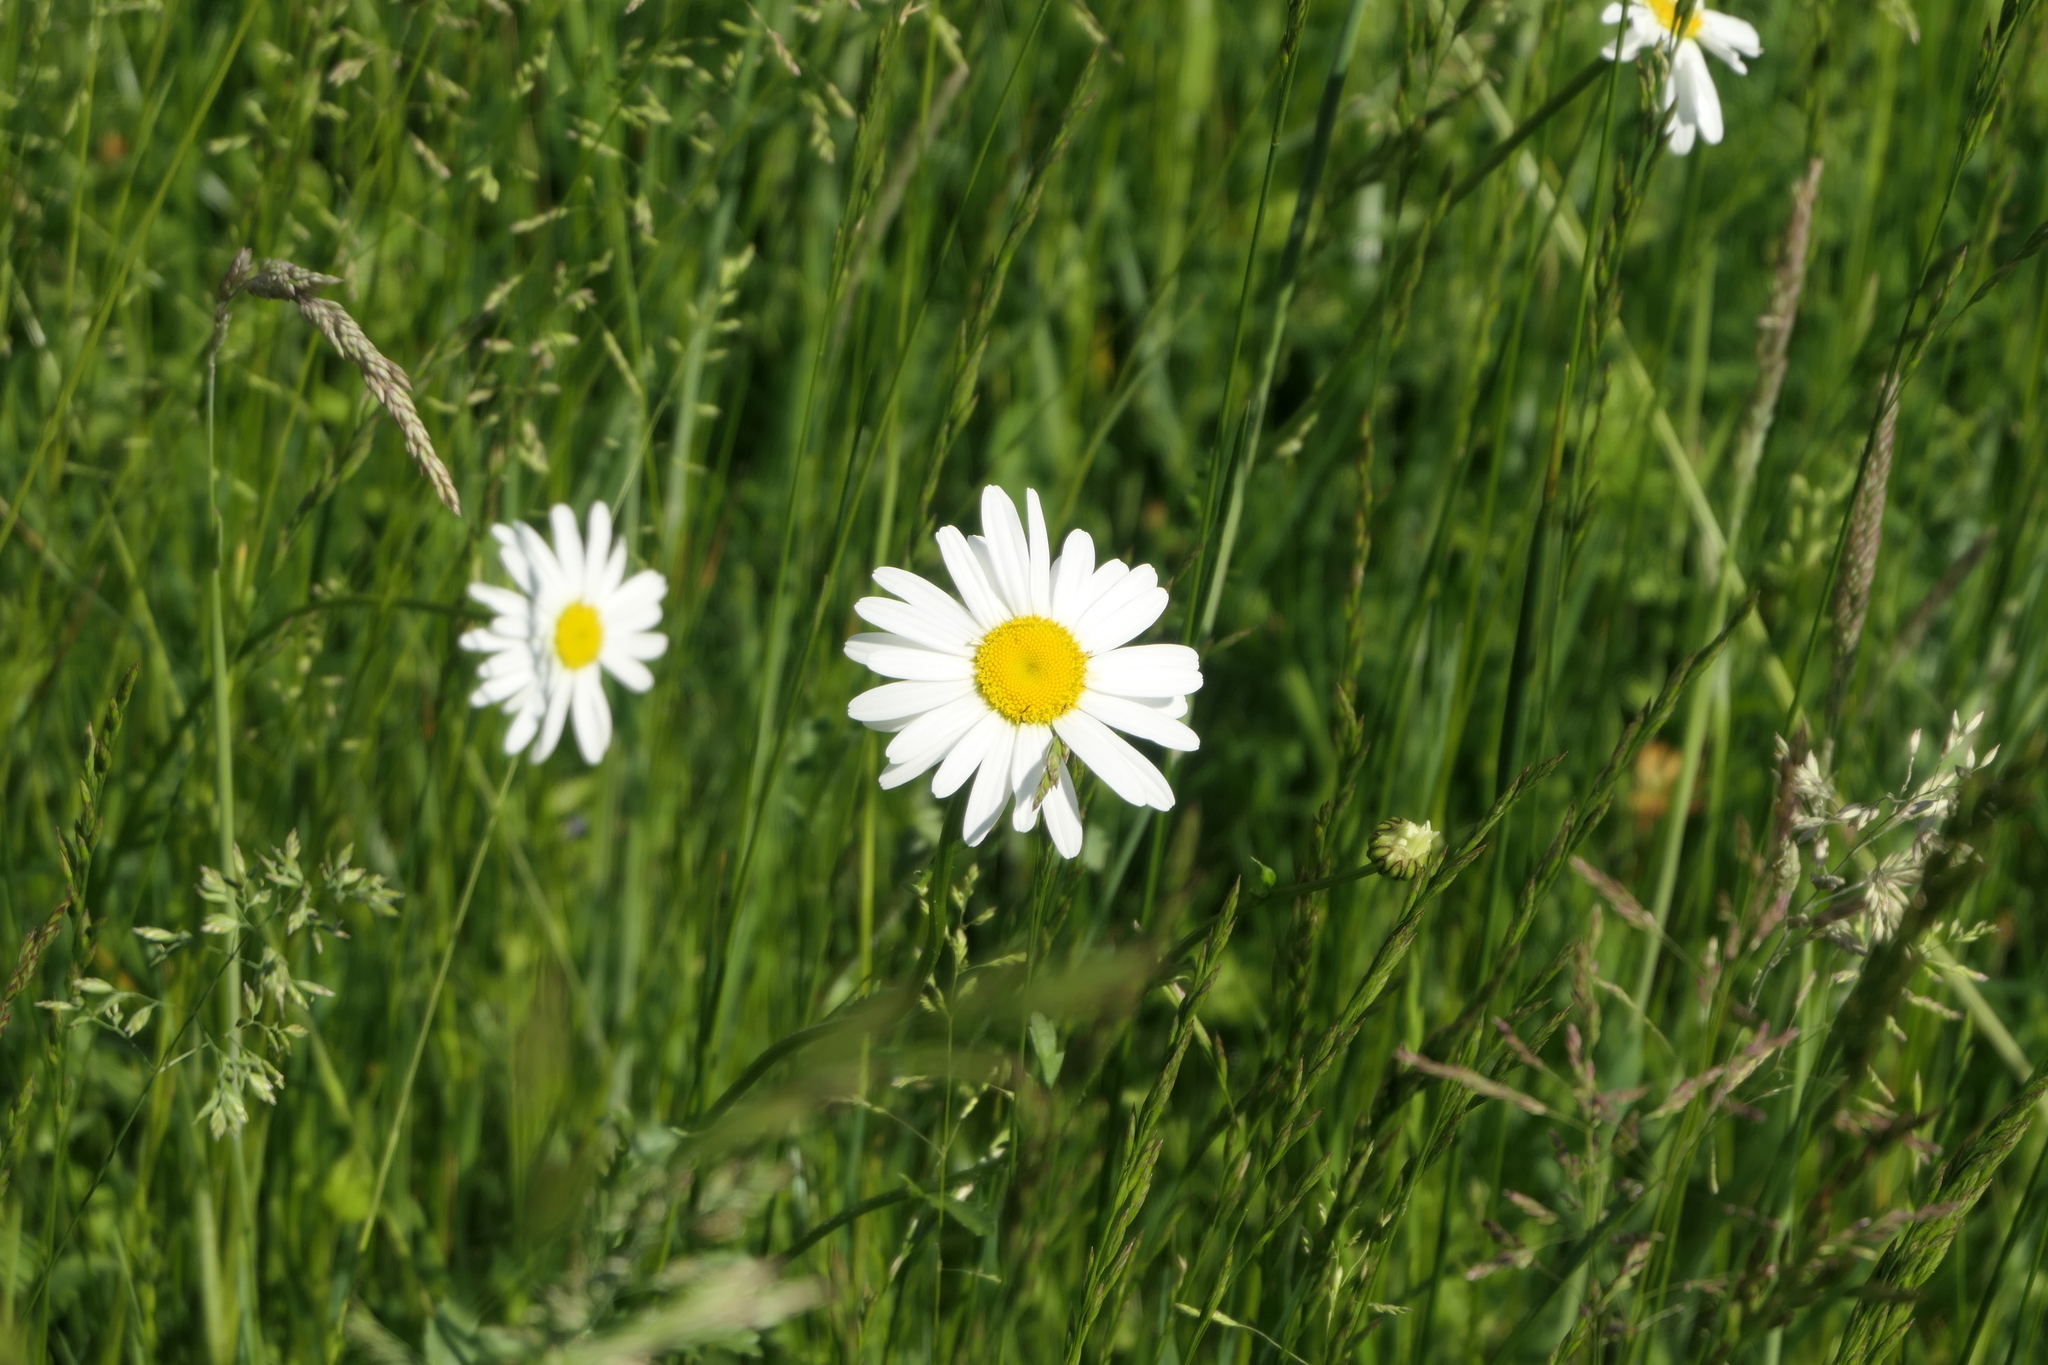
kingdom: Plantae
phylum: Tracheophyta
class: Magnoliopsida
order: Asterales
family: Asteraceae
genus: Leucanthemum
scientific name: Leucanthemum vulgare
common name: Oxeye daisy
